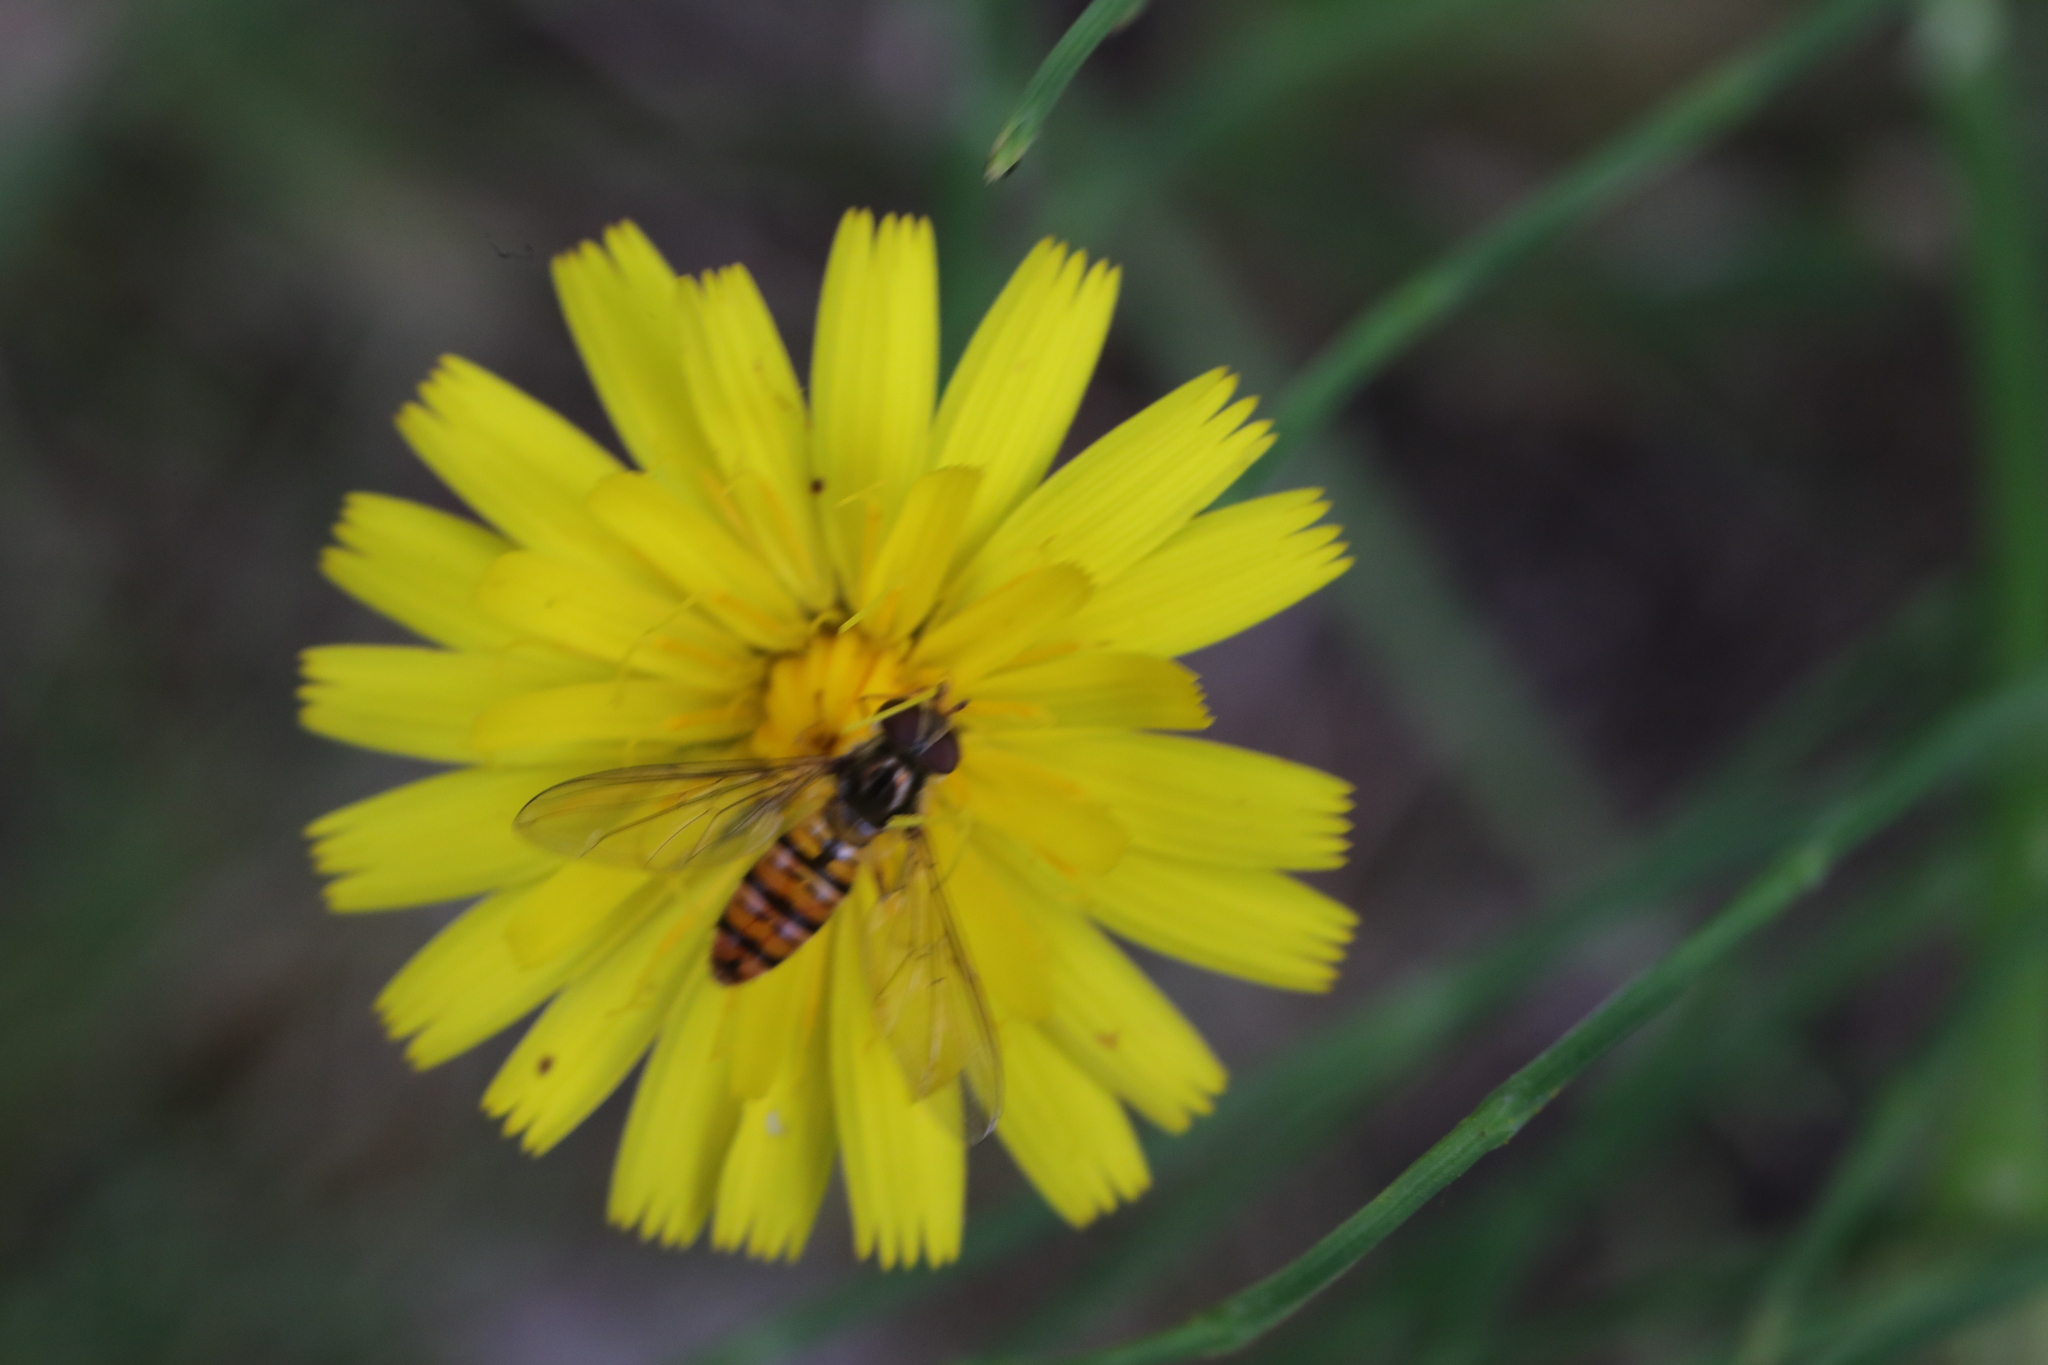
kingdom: Animalia
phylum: Arthropoda
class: Insecta
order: Diptera
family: Syrphidae
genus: Episyrphus
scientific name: Episyrphus balteatus
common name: Marmalade hoverfly
